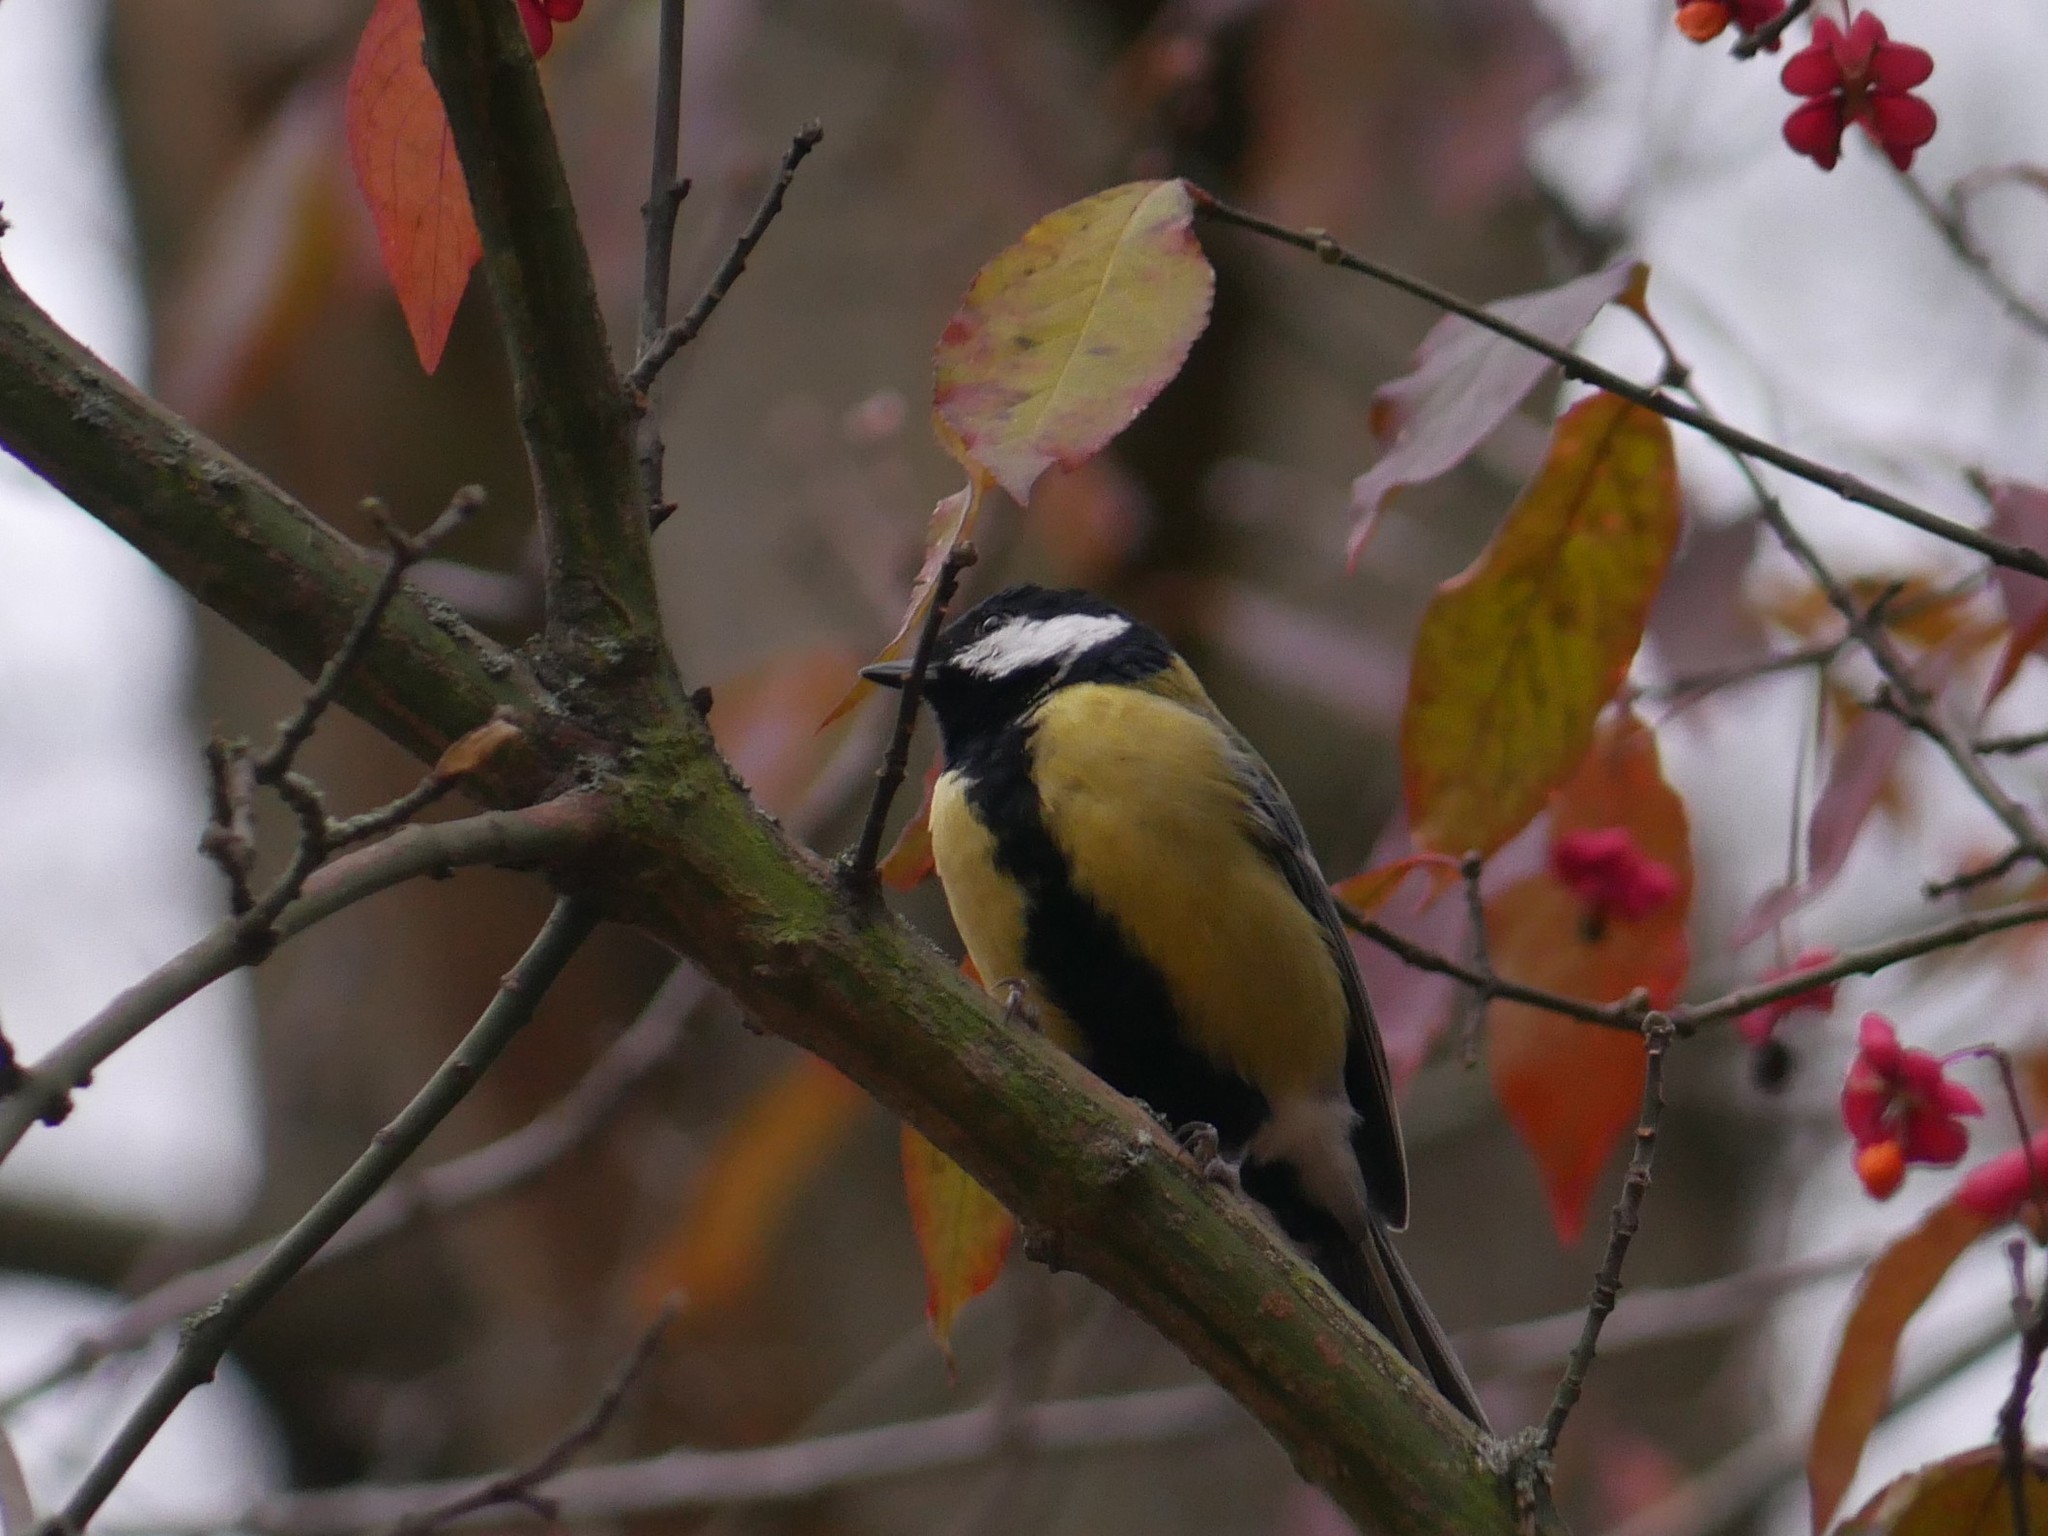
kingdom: Animalia
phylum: Chordata
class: Aves
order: Passeriformes
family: Paridae
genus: Parus
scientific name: Parus major
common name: Great tit
